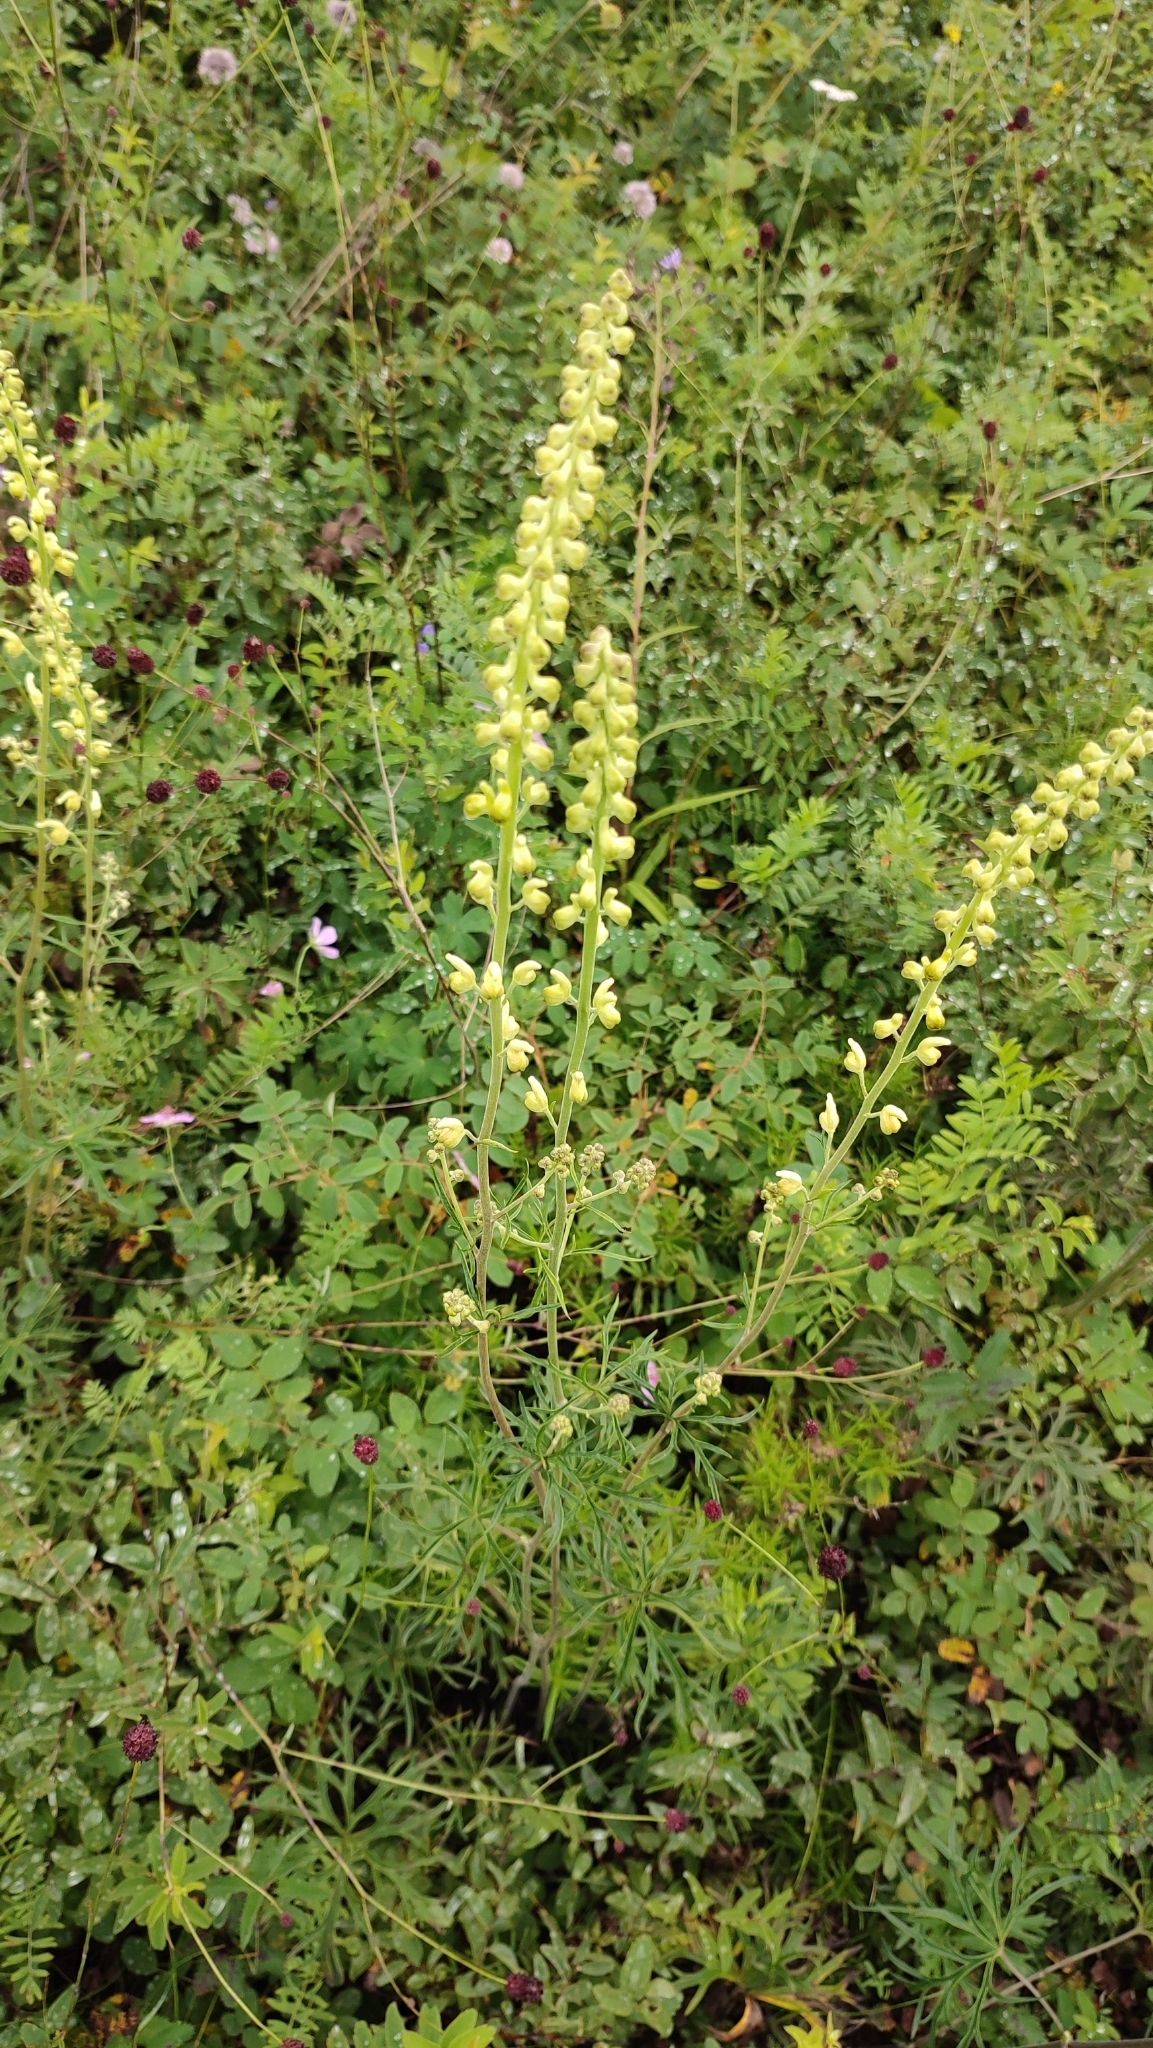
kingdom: Plantae
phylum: Tracheophyta
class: Magnoliopsida
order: Ranunculales
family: Ranunculaceae
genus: Aconitum
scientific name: Aconitum barbatum
